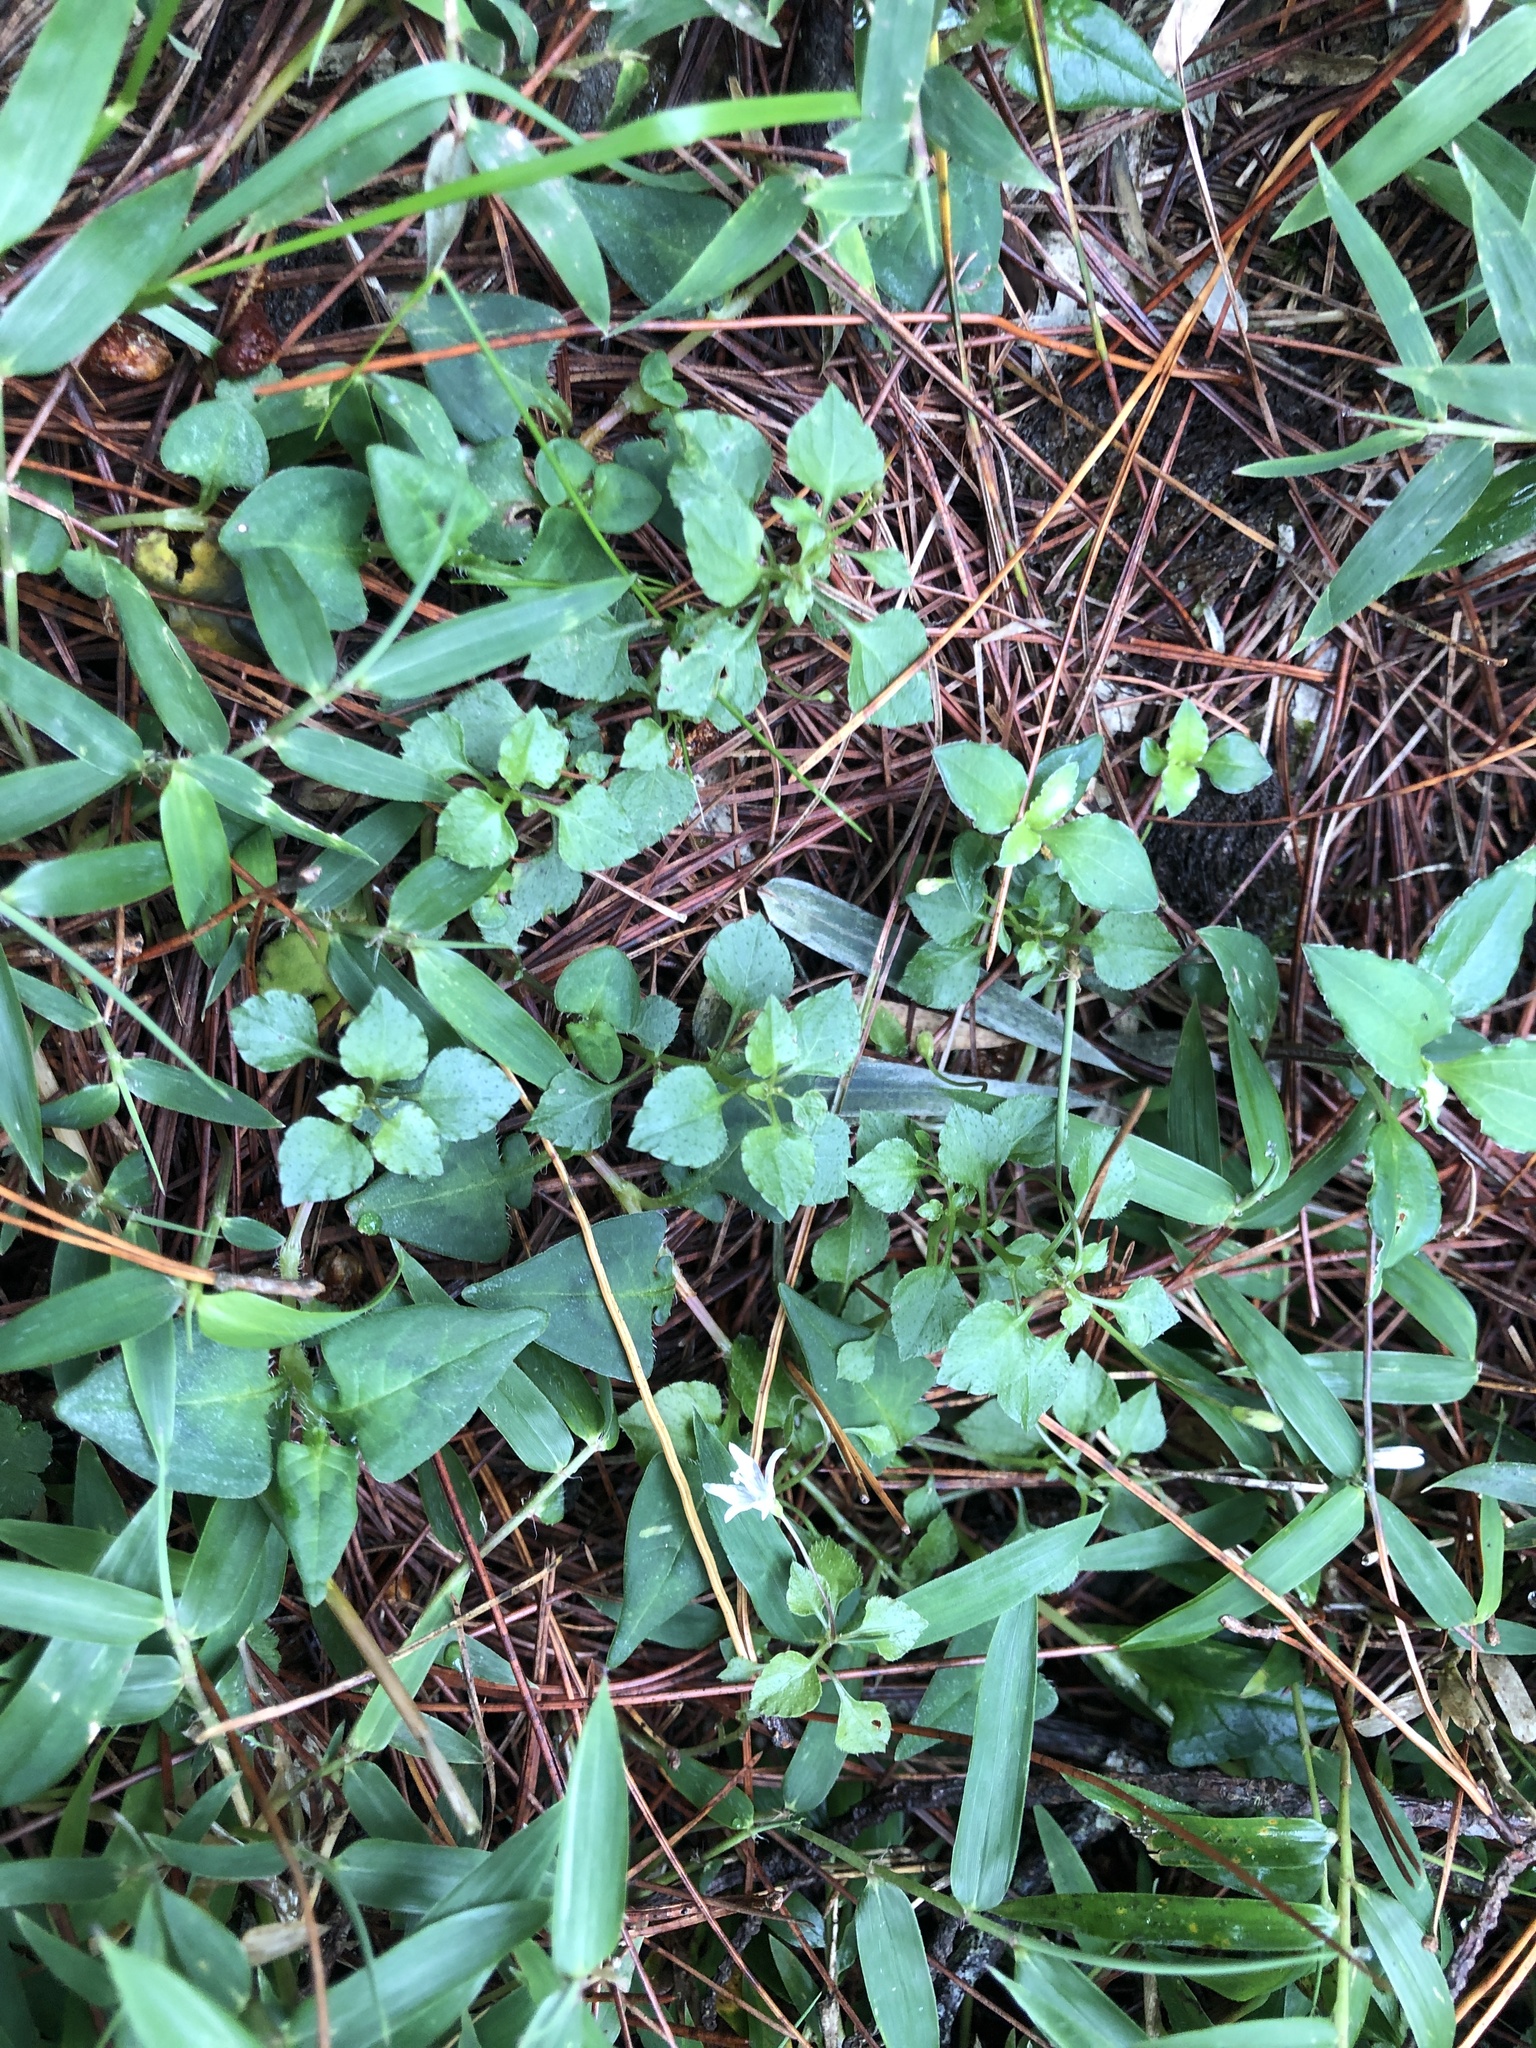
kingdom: Plantae
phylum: Tracheophyta
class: Magnoliopsida
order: Asterales
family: Campanulaceae
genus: Peracarpa
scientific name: Peracarpa carnosa
